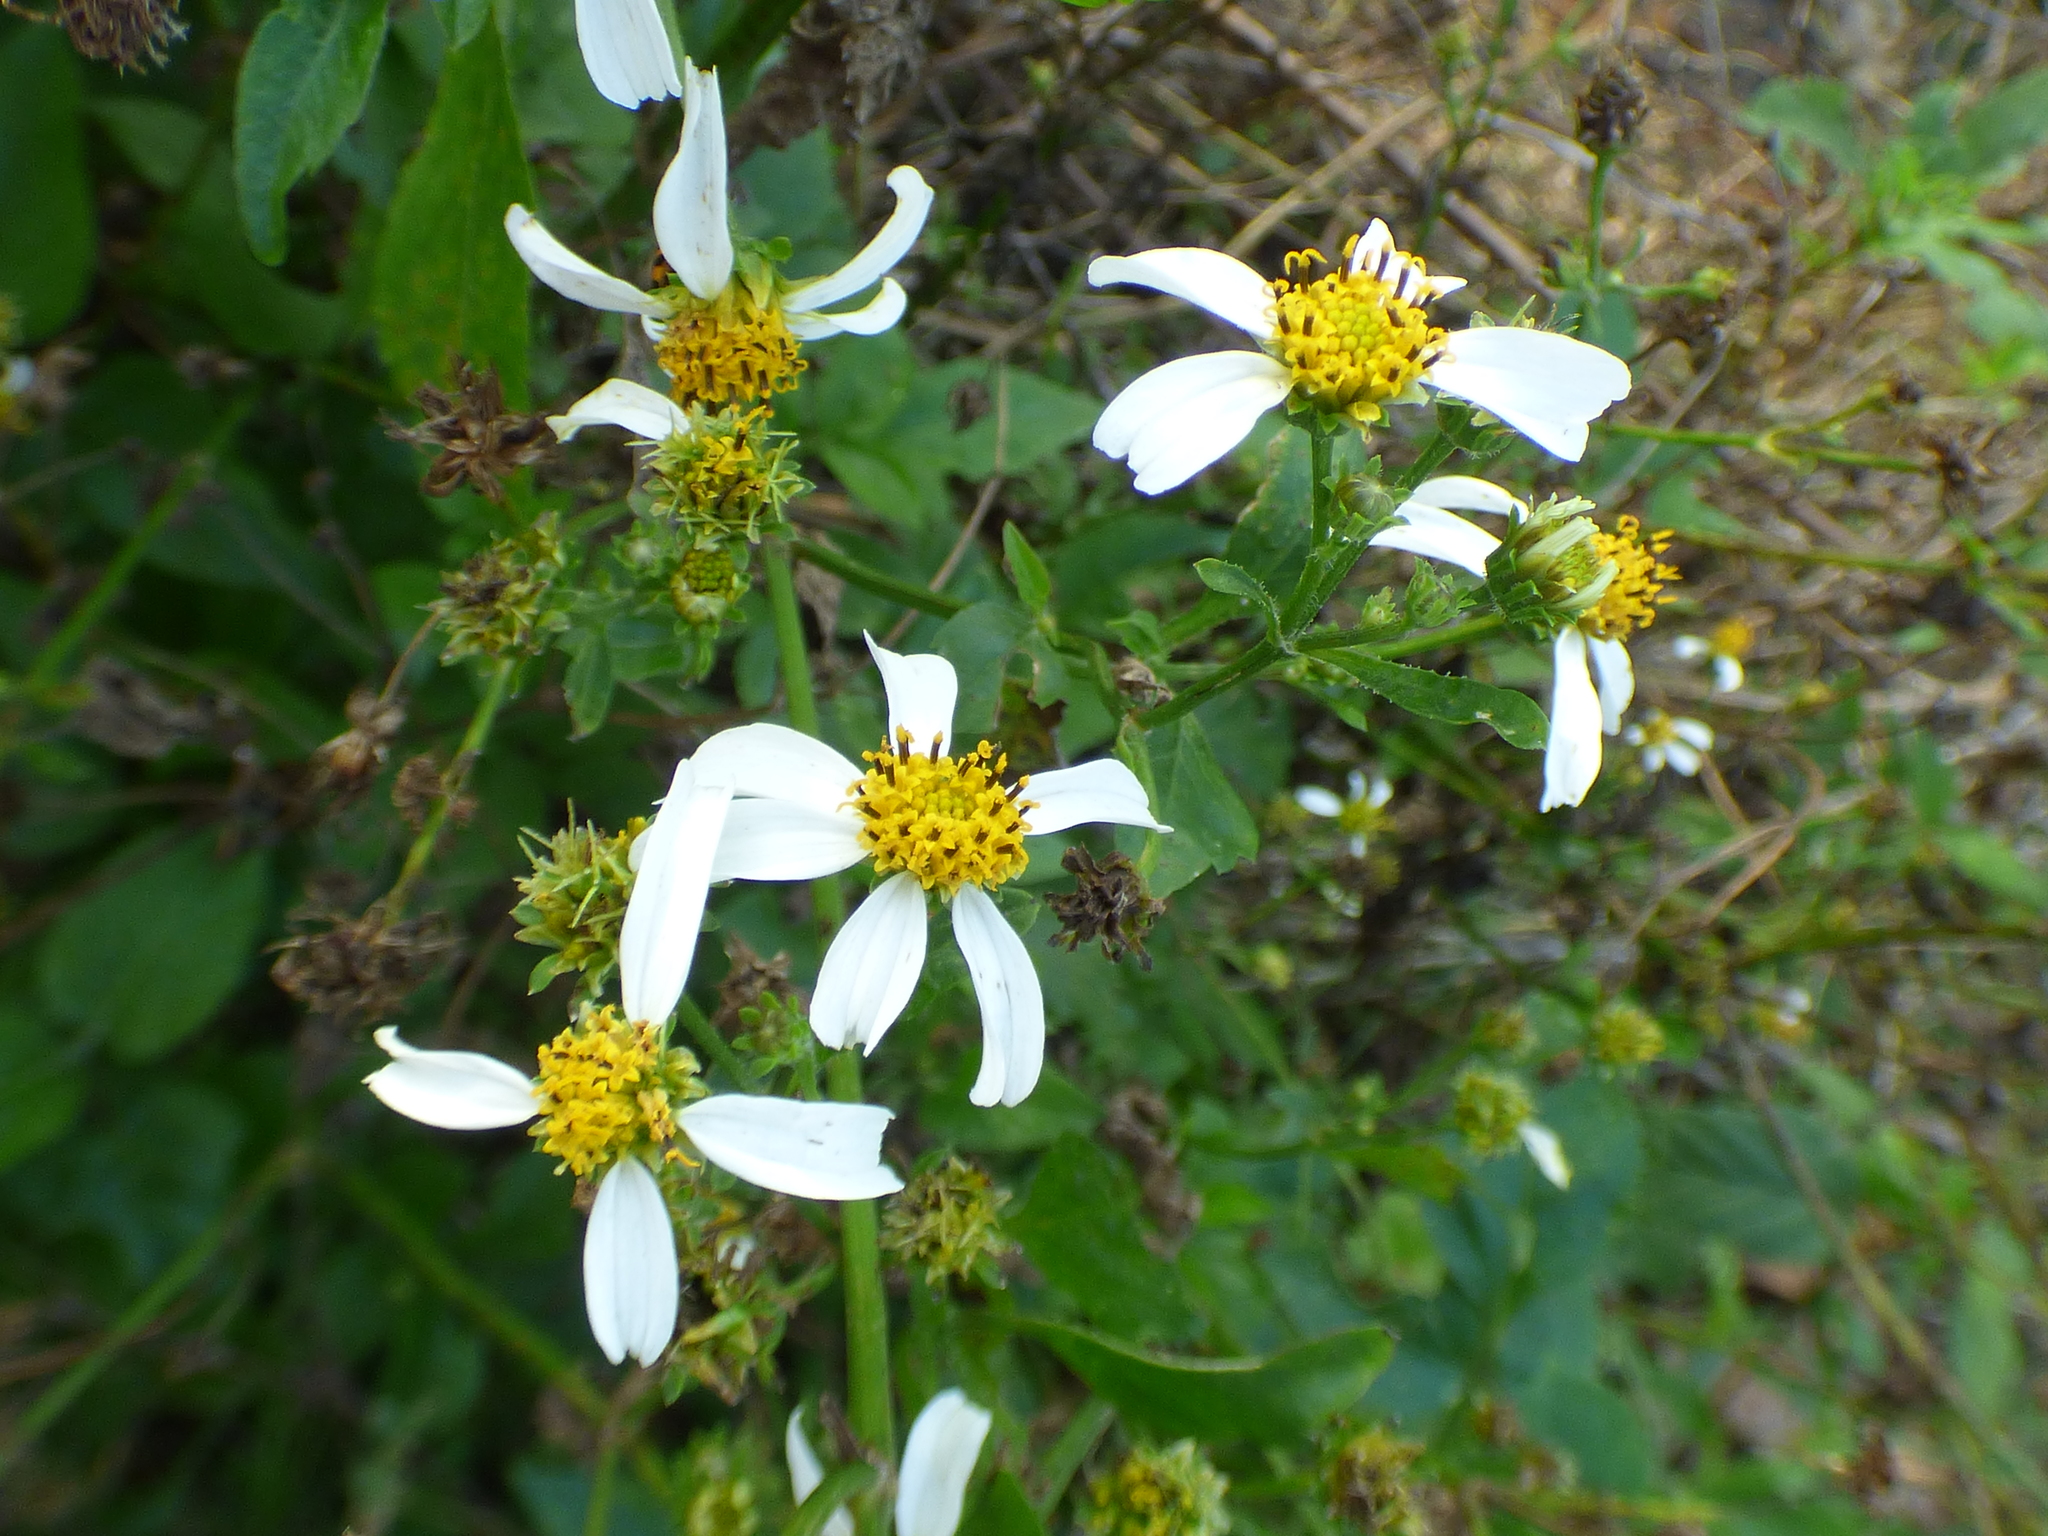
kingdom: Plantae
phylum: Tracheophyta
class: Magnoliopsida
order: Asterales
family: Asteraceae
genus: Bidens
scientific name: Bidens alba
